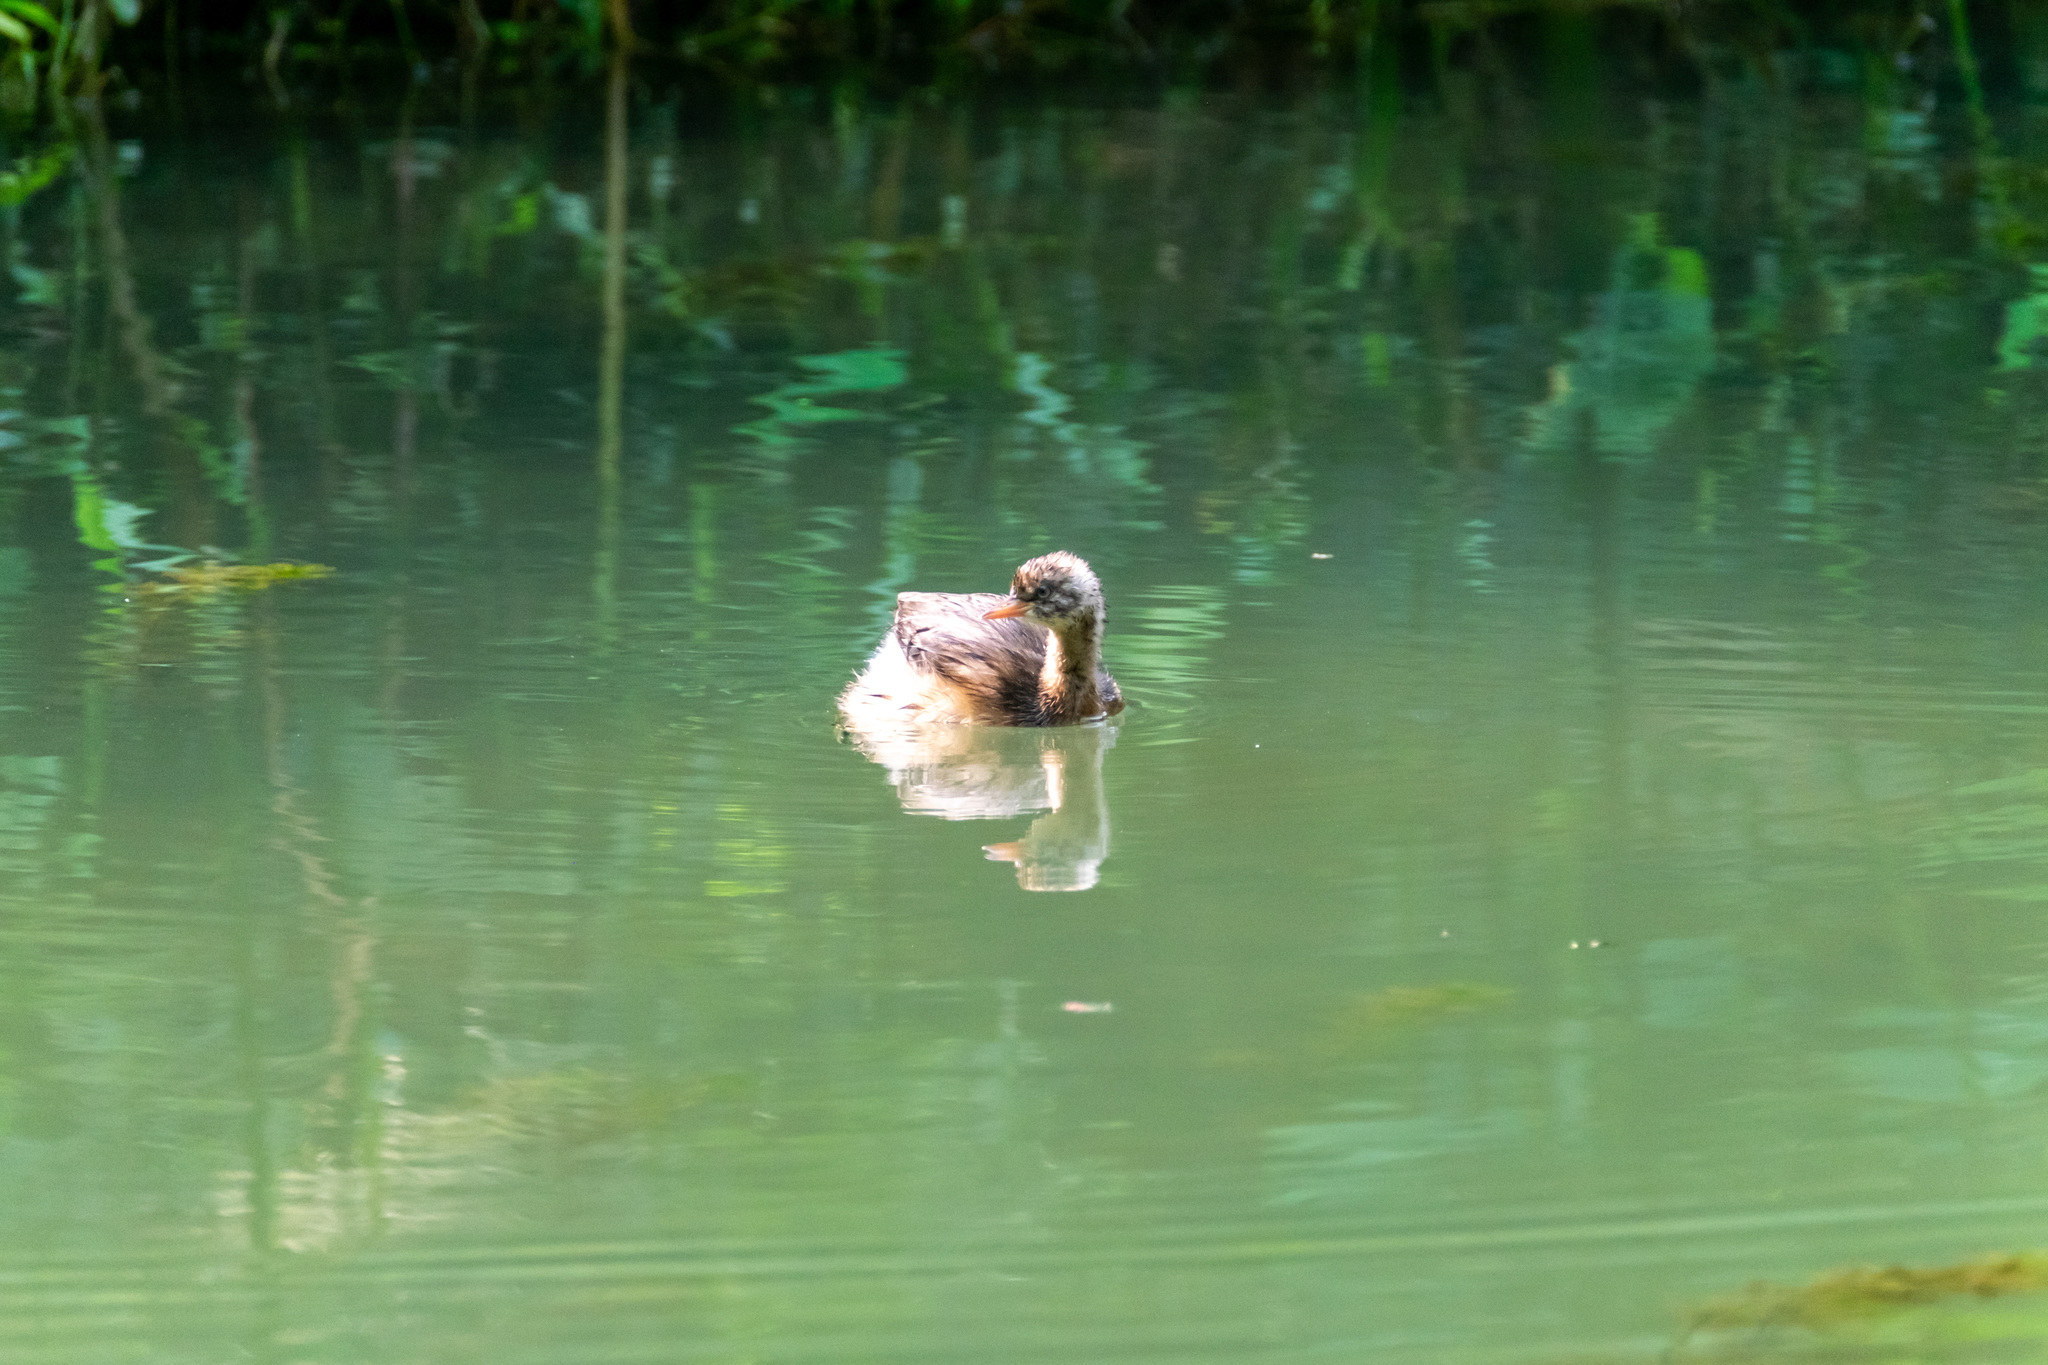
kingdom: Animalia
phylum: Chordata
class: Aves
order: Podicipediformes
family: Podicipedidae
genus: Tachybaptus
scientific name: Tachybaptus ruficollis
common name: Little grebe
